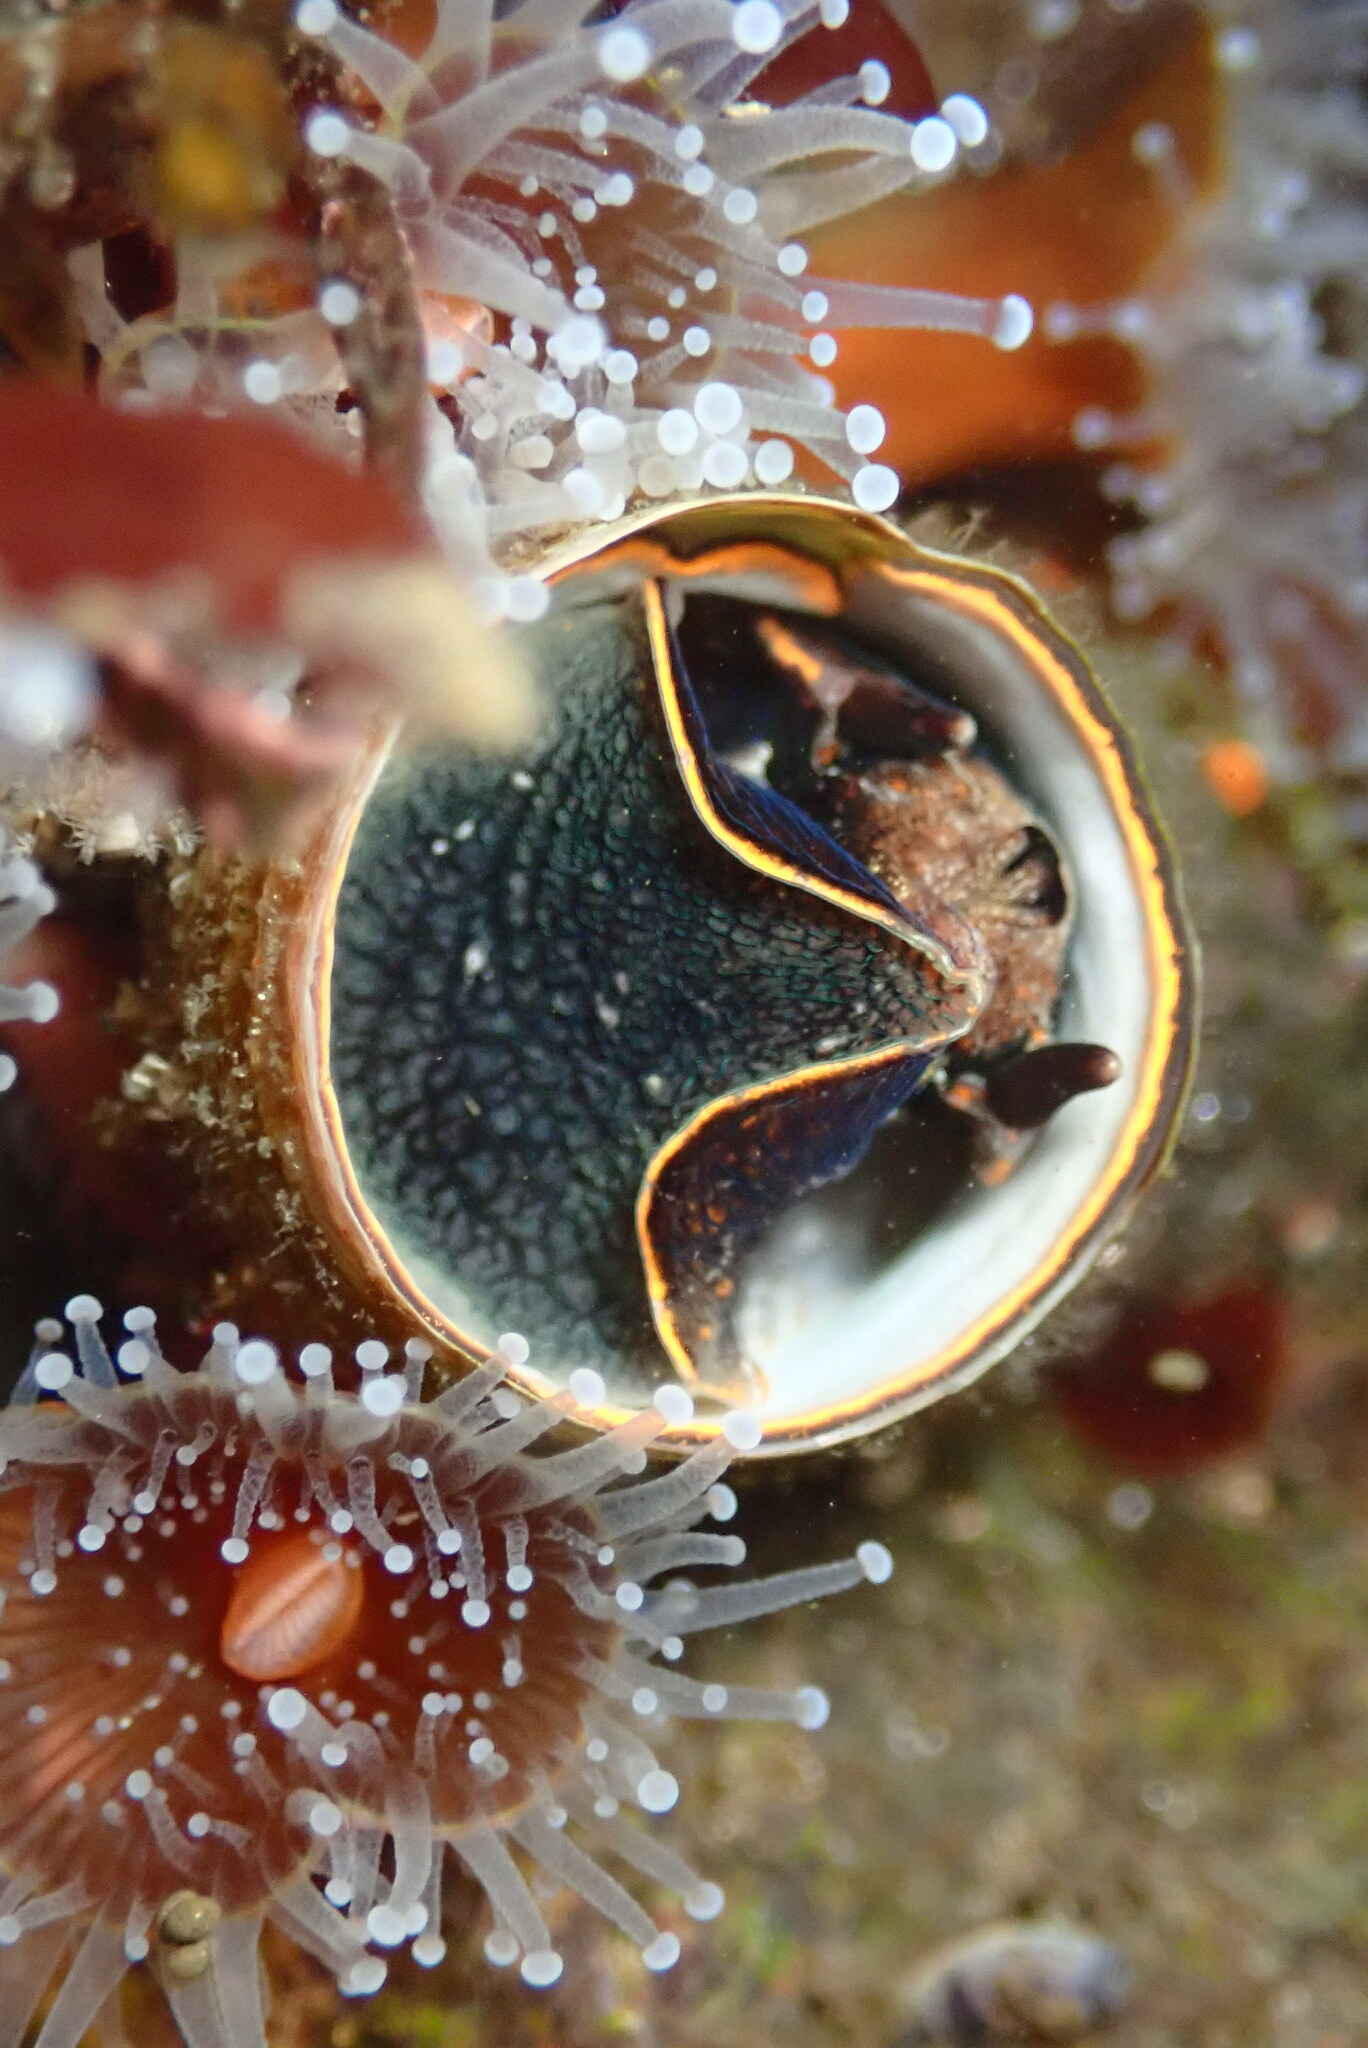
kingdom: Animalia
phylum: Mollusca
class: Gastropoda
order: Littorinimorpha
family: Vermetidae
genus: Thylacodes
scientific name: Thylacodes squamigerus
